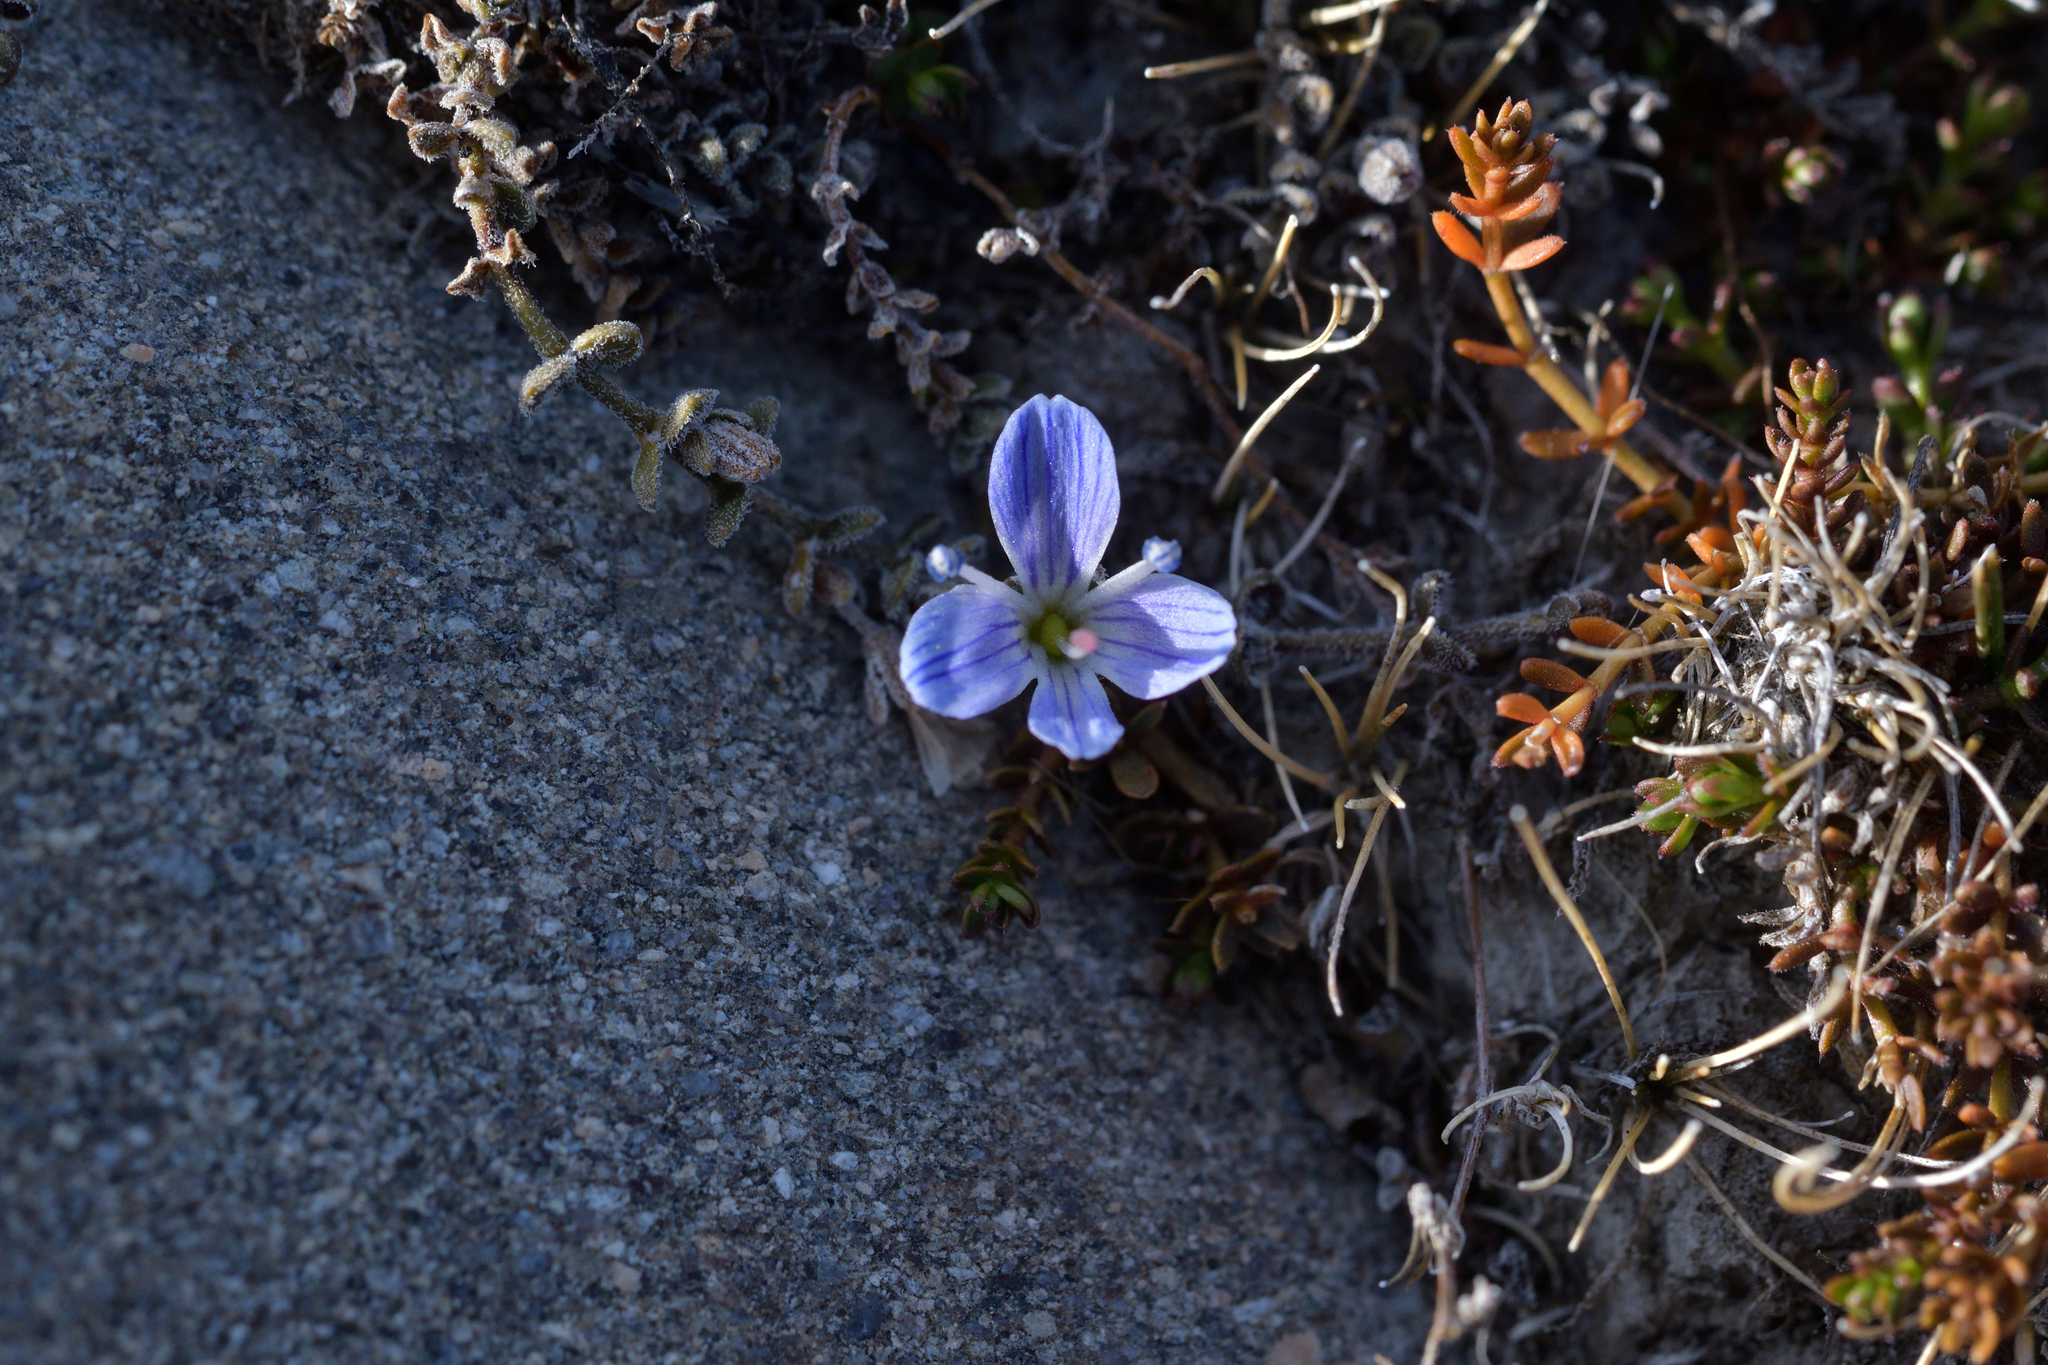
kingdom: Plantae
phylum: Tracheophyta
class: Magnoliopsida
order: Lamiales
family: Plantaginaceae
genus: Veronica
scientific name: Veronica lilliputiana
